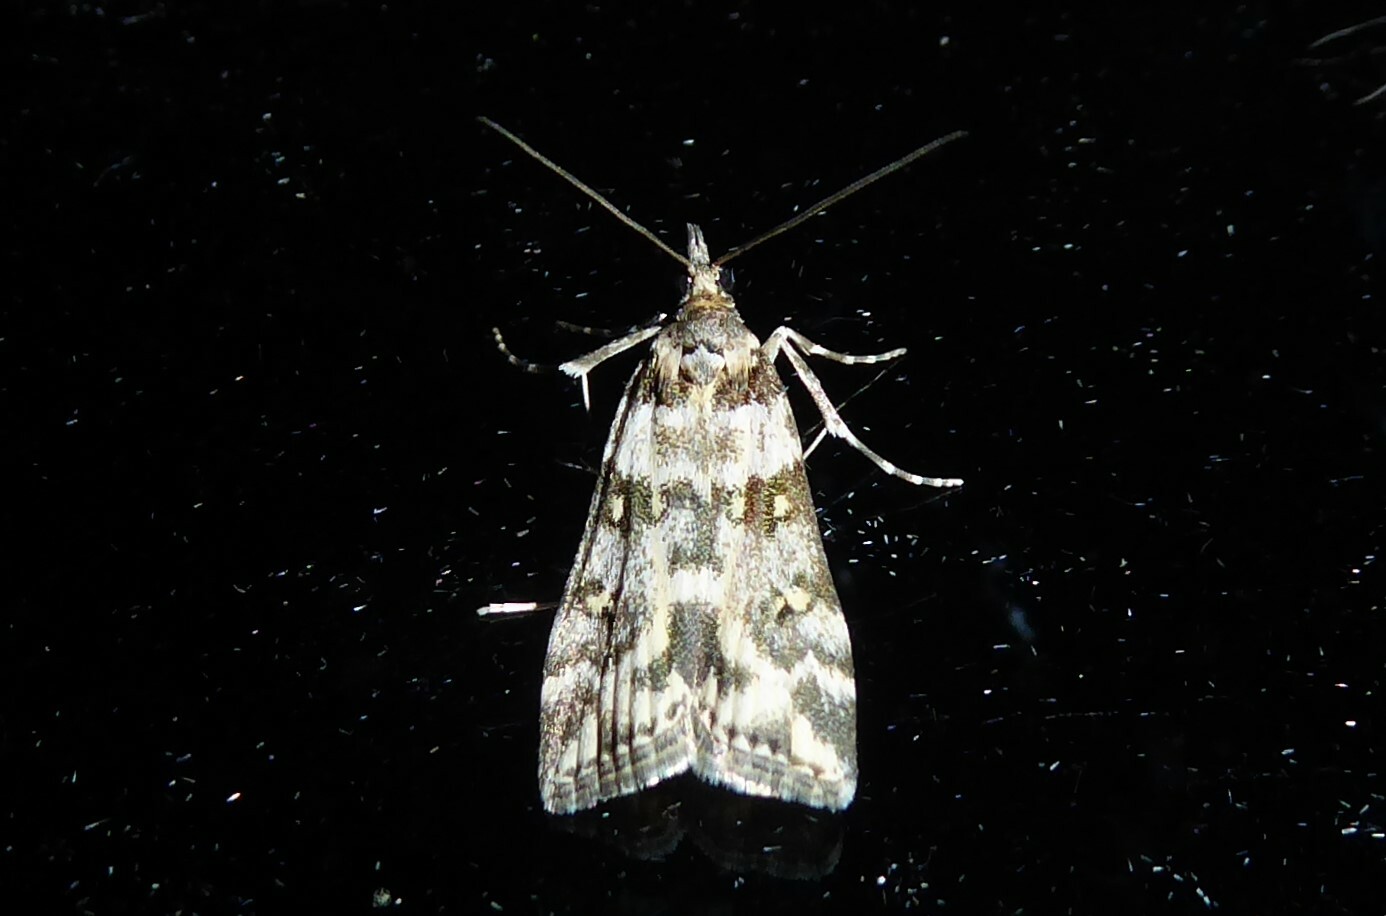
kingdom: Animalia
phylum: Arthropoda
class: Insecta
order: Lepidoptera
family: Crambidae
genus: Eudonia
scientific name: Eudonia diphtheralis
